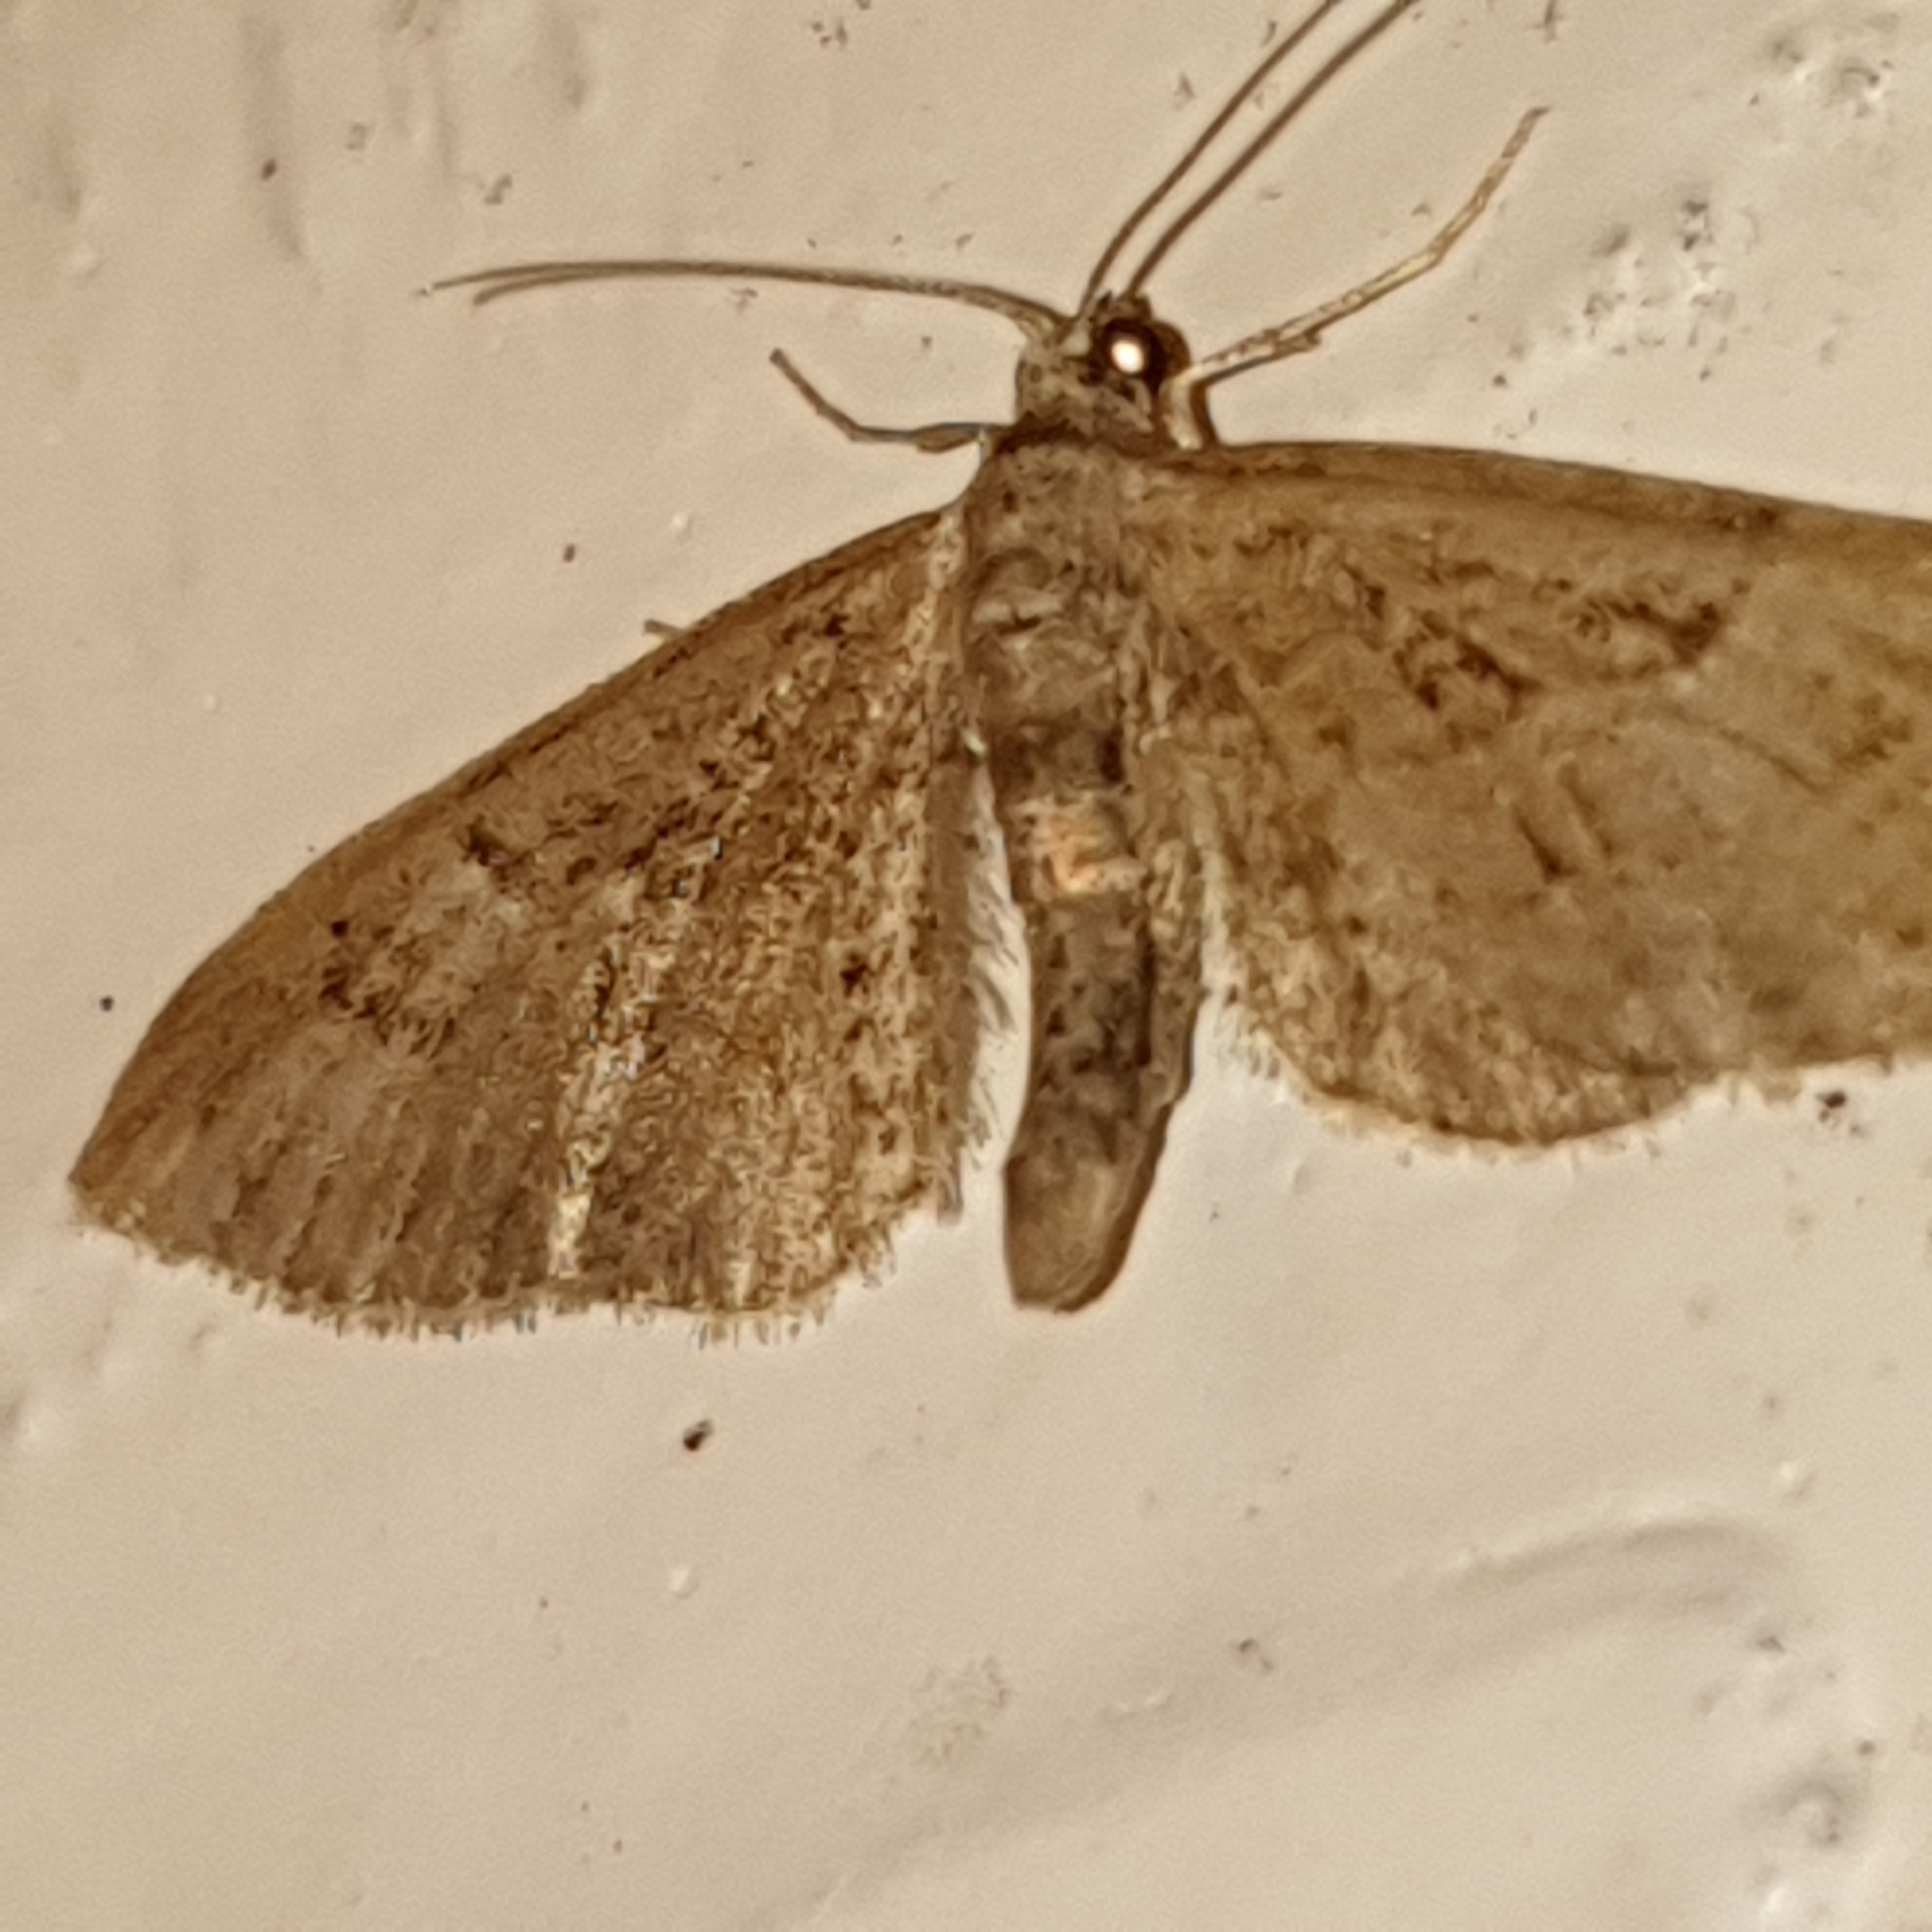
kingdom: Animalia
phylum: Arthropoda
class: Insecta
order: Lepidoptera
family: Geometridae
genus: Eupithecia
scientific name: Eupithecia pusillata
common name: Juniper pug
